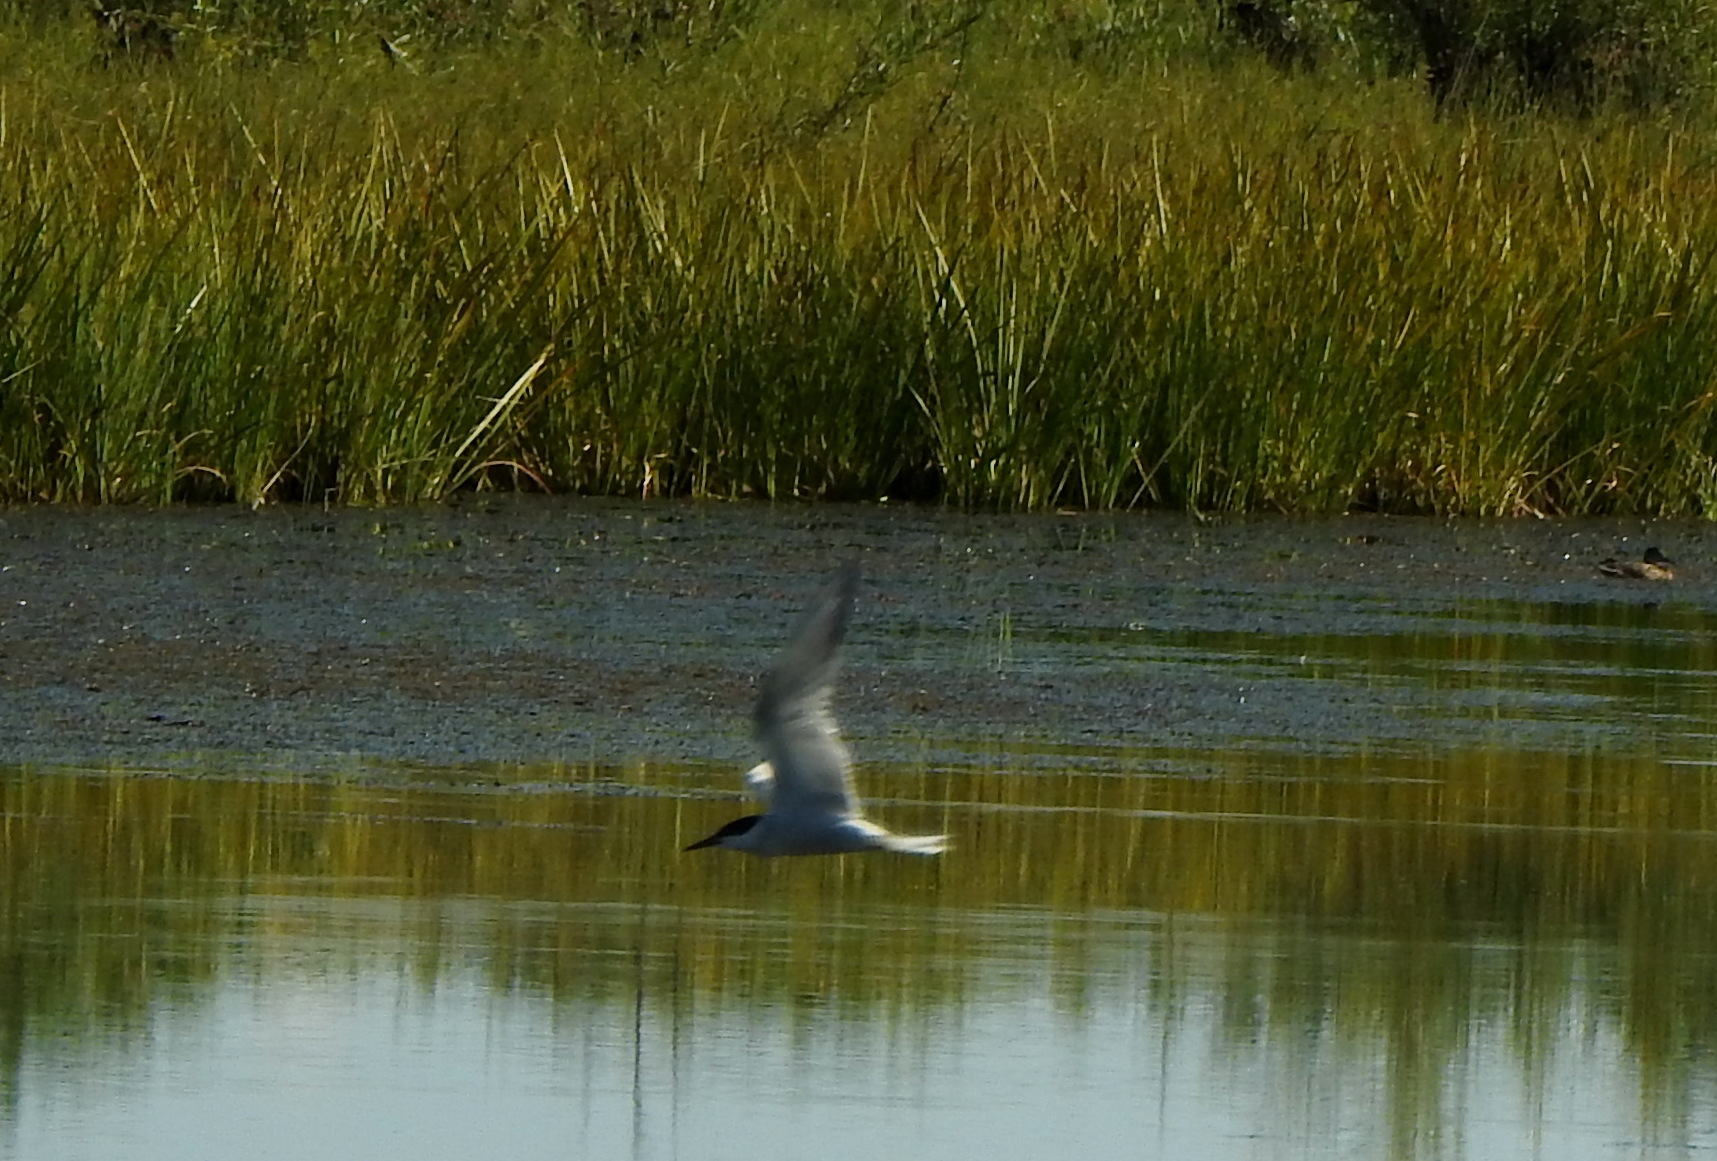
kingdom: Animalia
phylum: Chordata
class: Aves
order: Charadriiformes
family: Laridae
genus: Sterna
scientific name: Sterna hirundo
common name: Common tern
